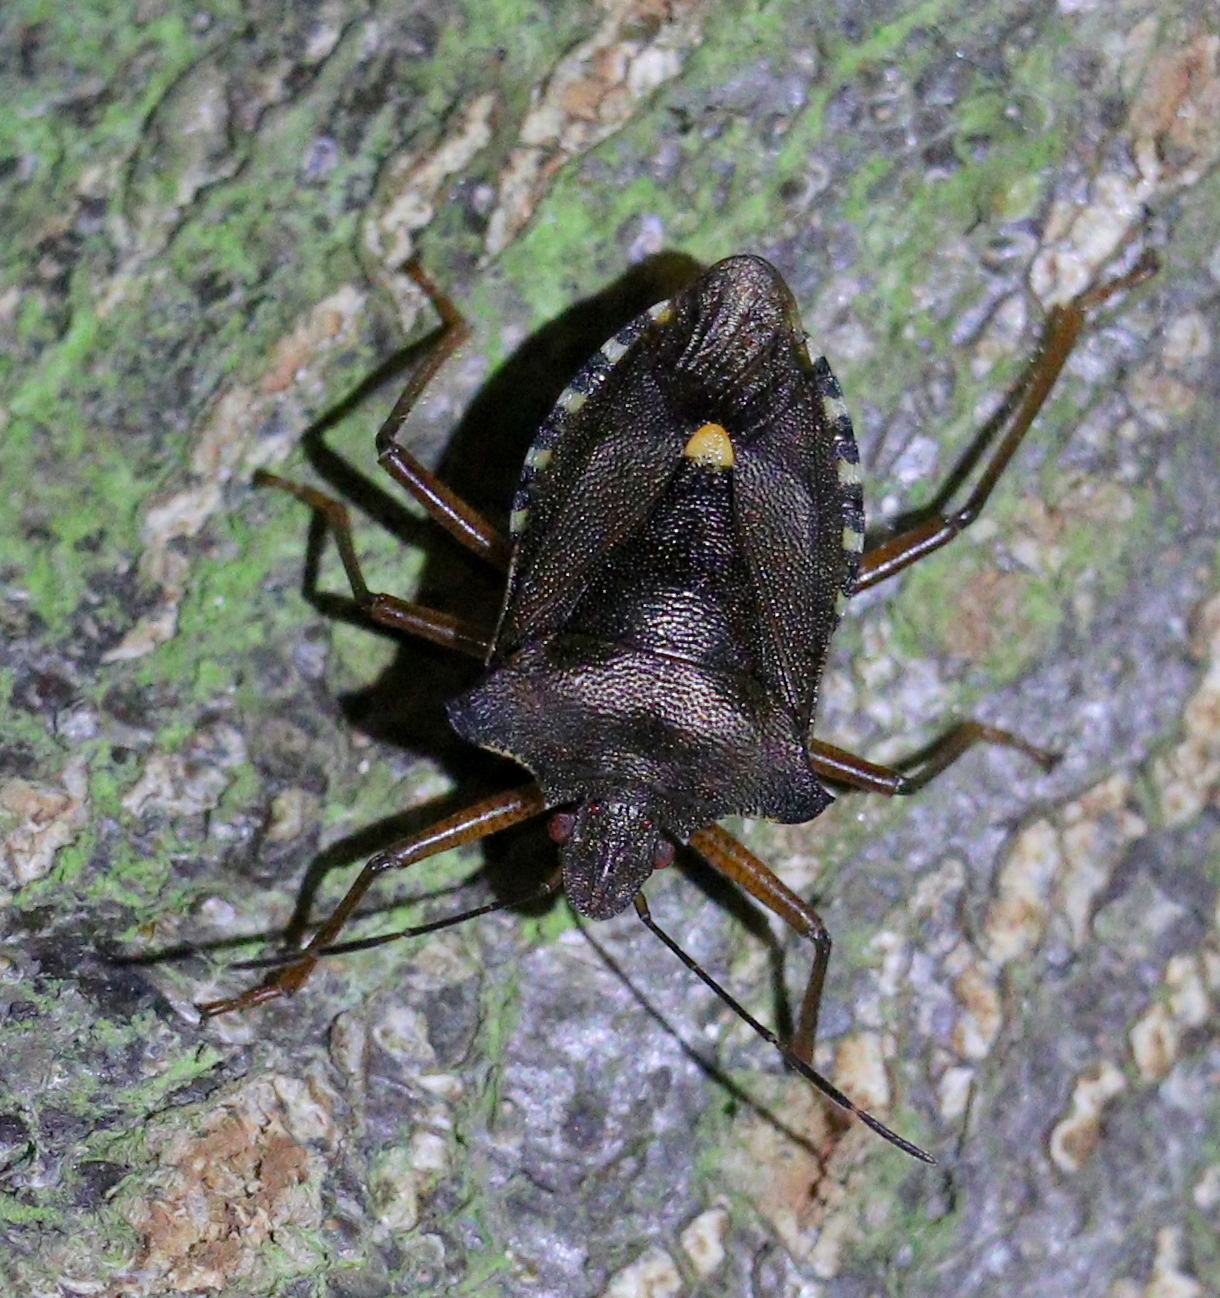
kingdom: Animalia
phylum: Arthropoda
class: Insecta
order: Hemiptera
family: Pentatomidae
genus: Pentatoma
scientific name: Pentatoma rufipes
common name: Forest bug
